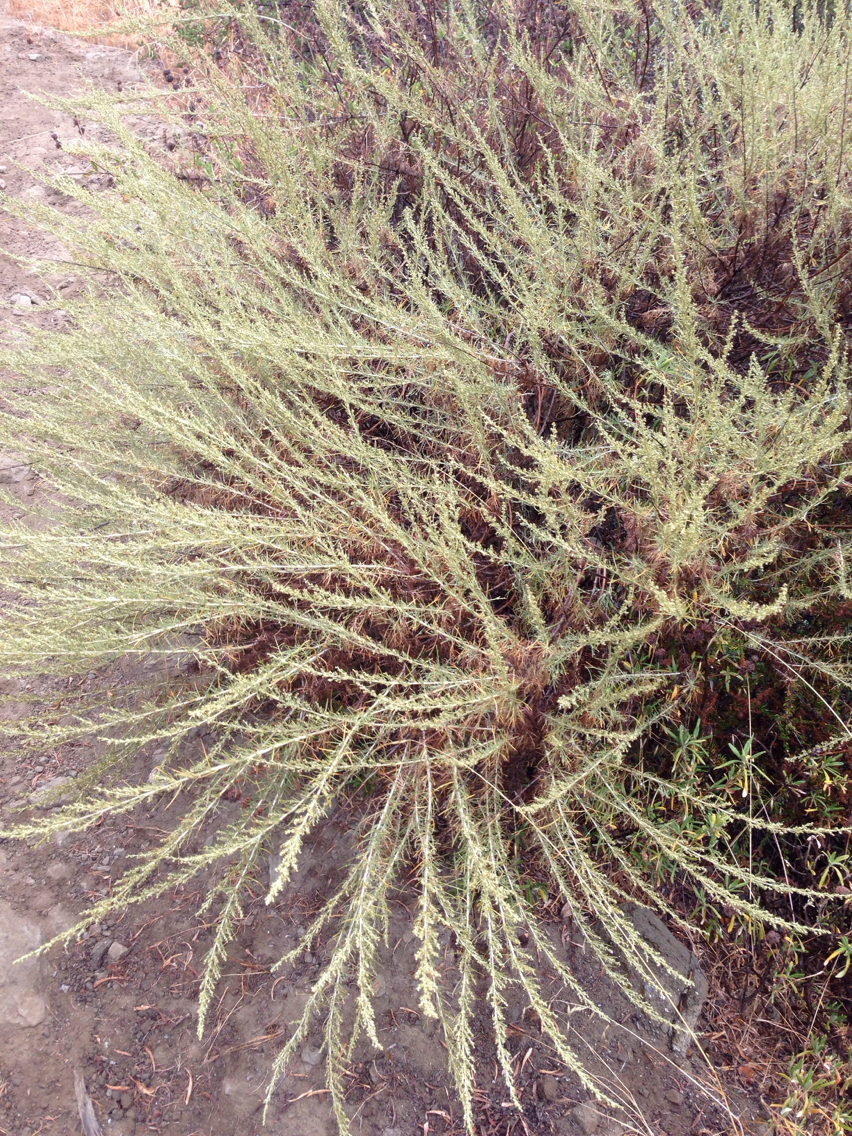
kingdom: Plantae
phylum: Tracheophyta
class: Magnoliopsida
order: Asterales
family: Asteraceae
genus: Artemisia
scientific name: Artemisia californica
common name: California sagebrush
